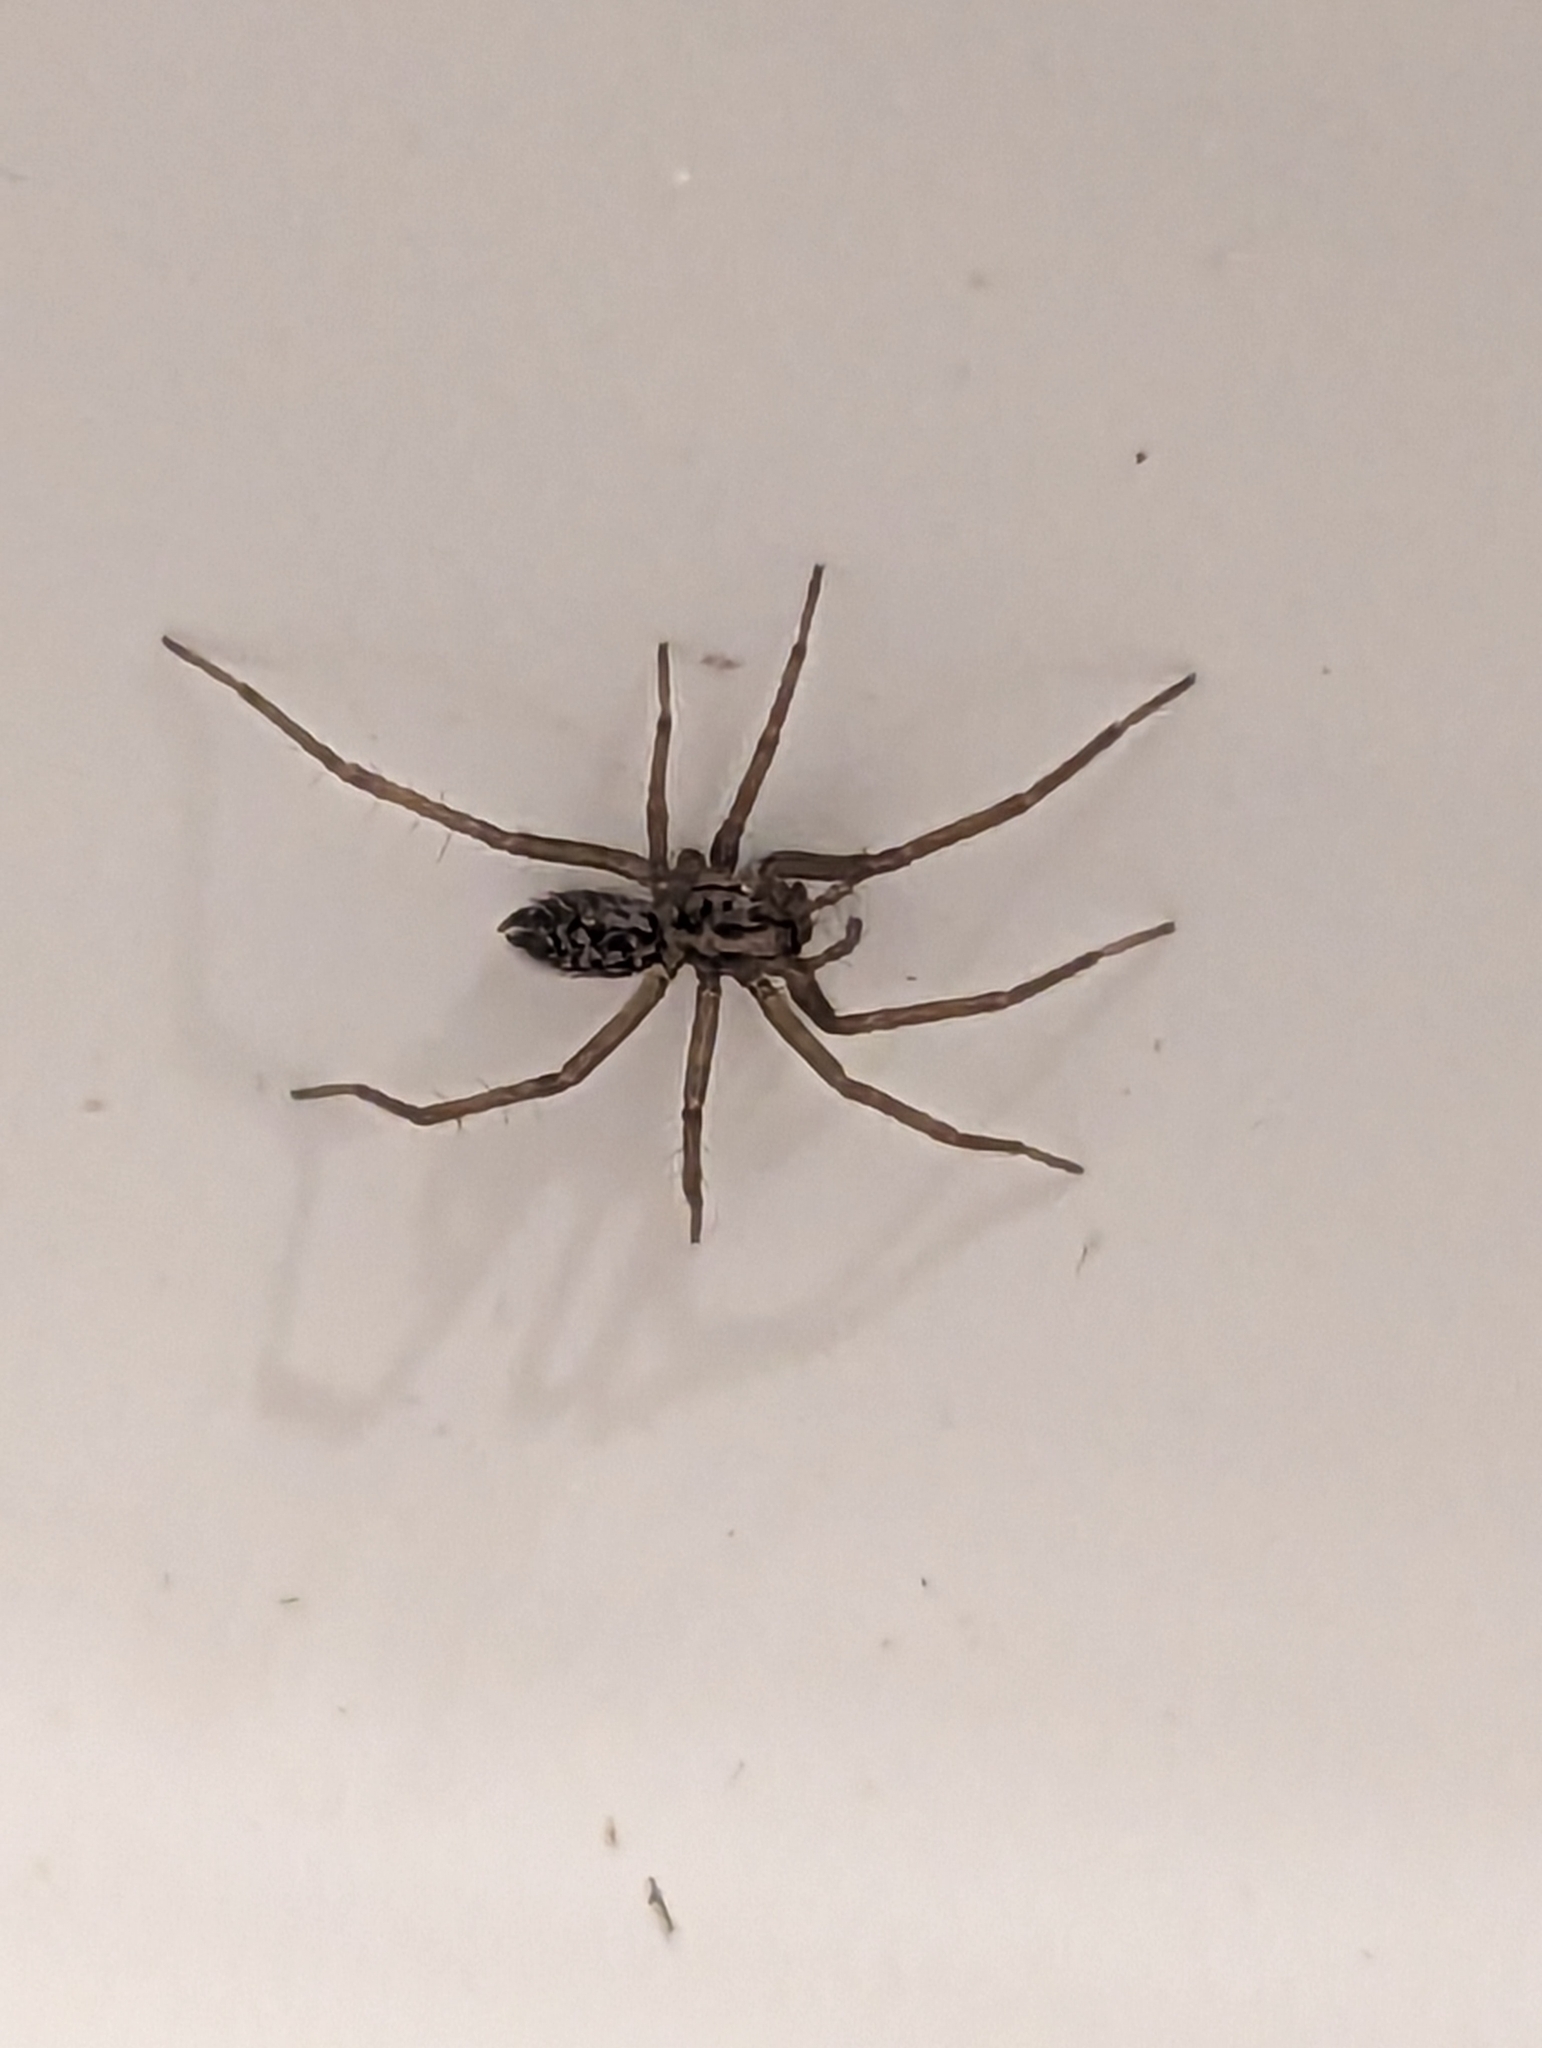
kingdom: Animalia
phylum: Arthropoda
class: Arachnida
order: Araneae
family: Agelenidae
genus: Eratigena
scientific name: Eratigena duellica
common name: Giant house spider
